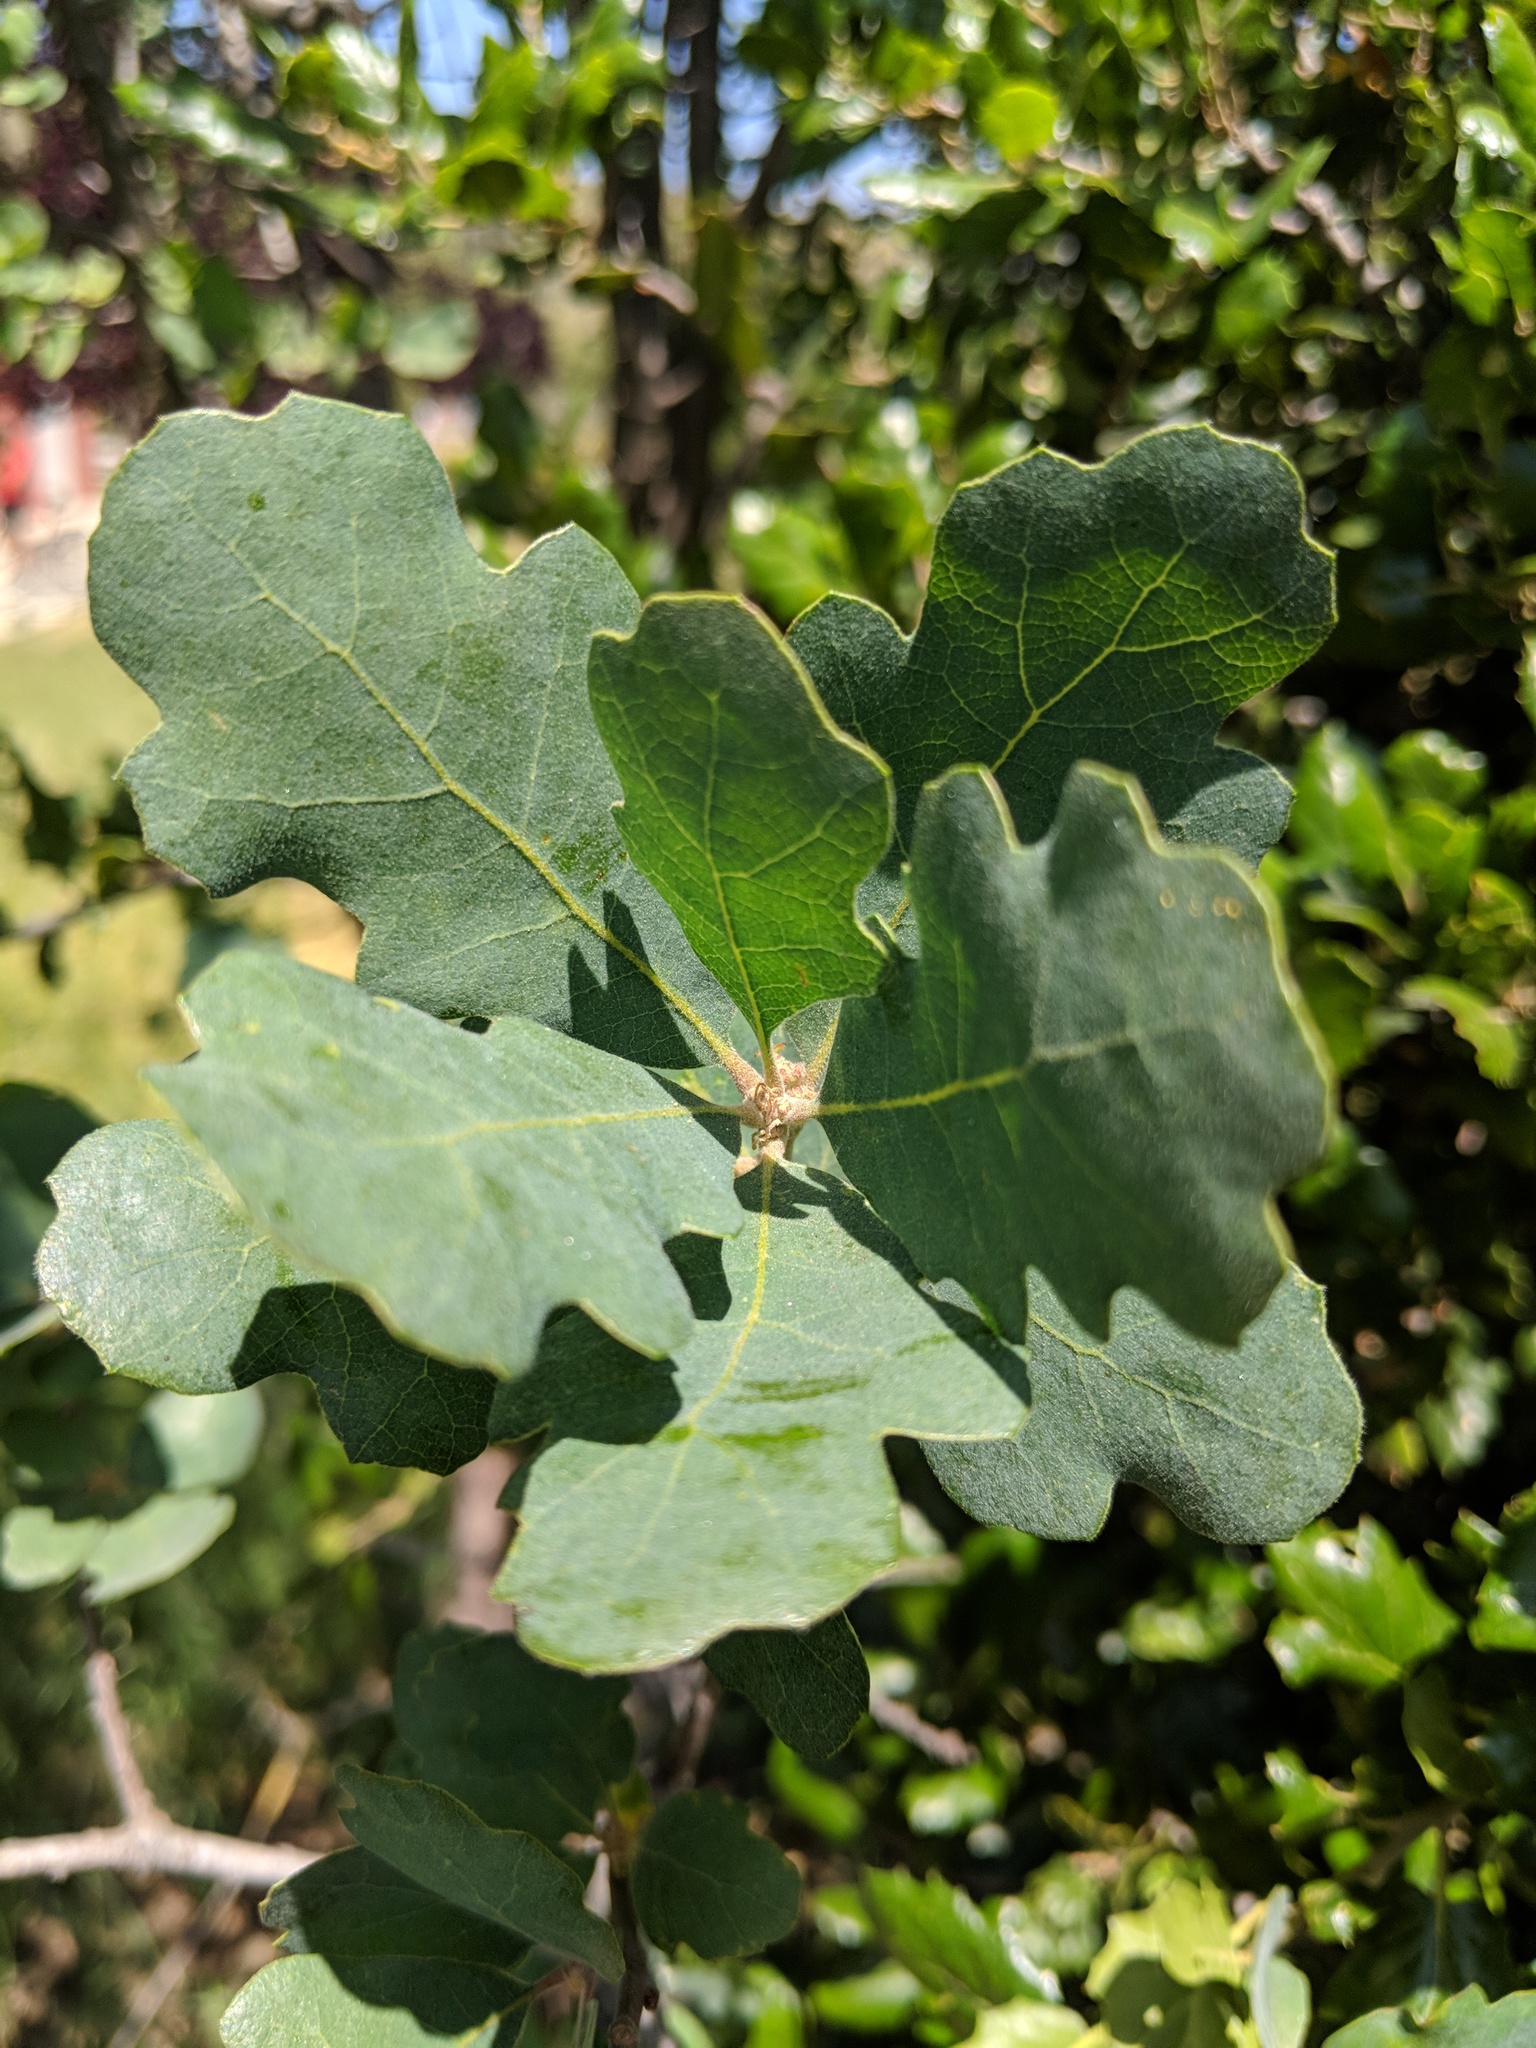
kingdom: Plantae
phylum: Tracheophyta
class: Magnoliopsida
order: Fagales
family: Fagaceae
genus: Quercus
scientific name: Quercus douglasii
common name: Blue oak
